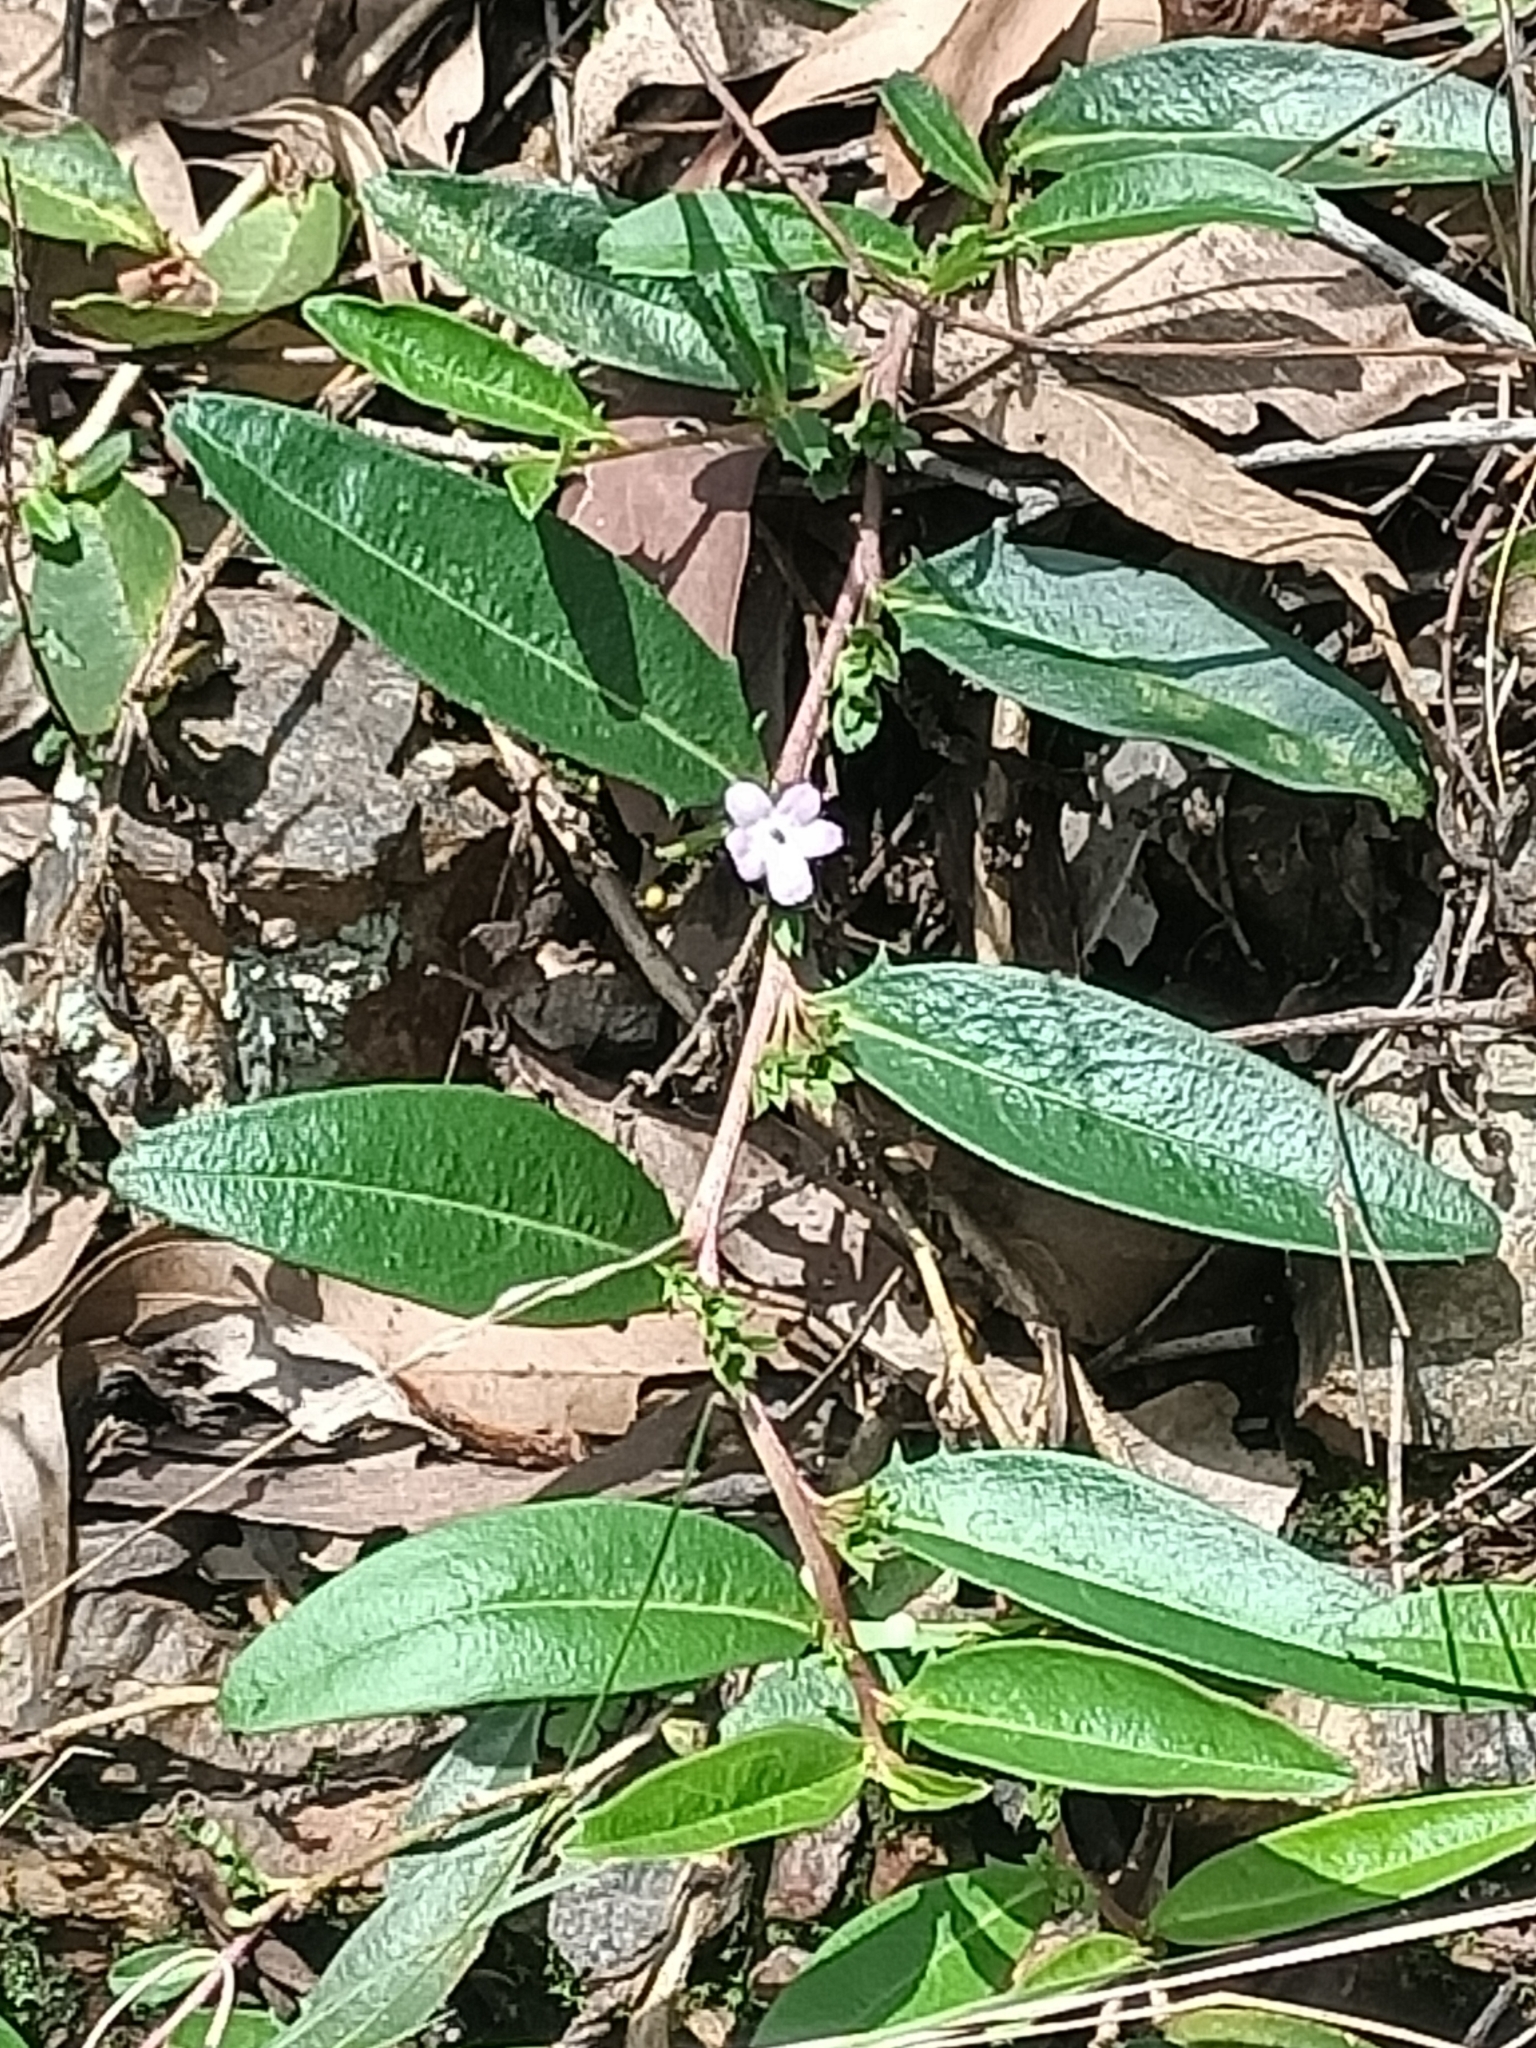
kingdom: Plantae
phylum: Tracheophyta
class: Magnoliopsida
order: Lamiales
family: Scrophulariaceae
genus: Eremophila
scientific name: Eremophila debilis
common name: Winter-apple
